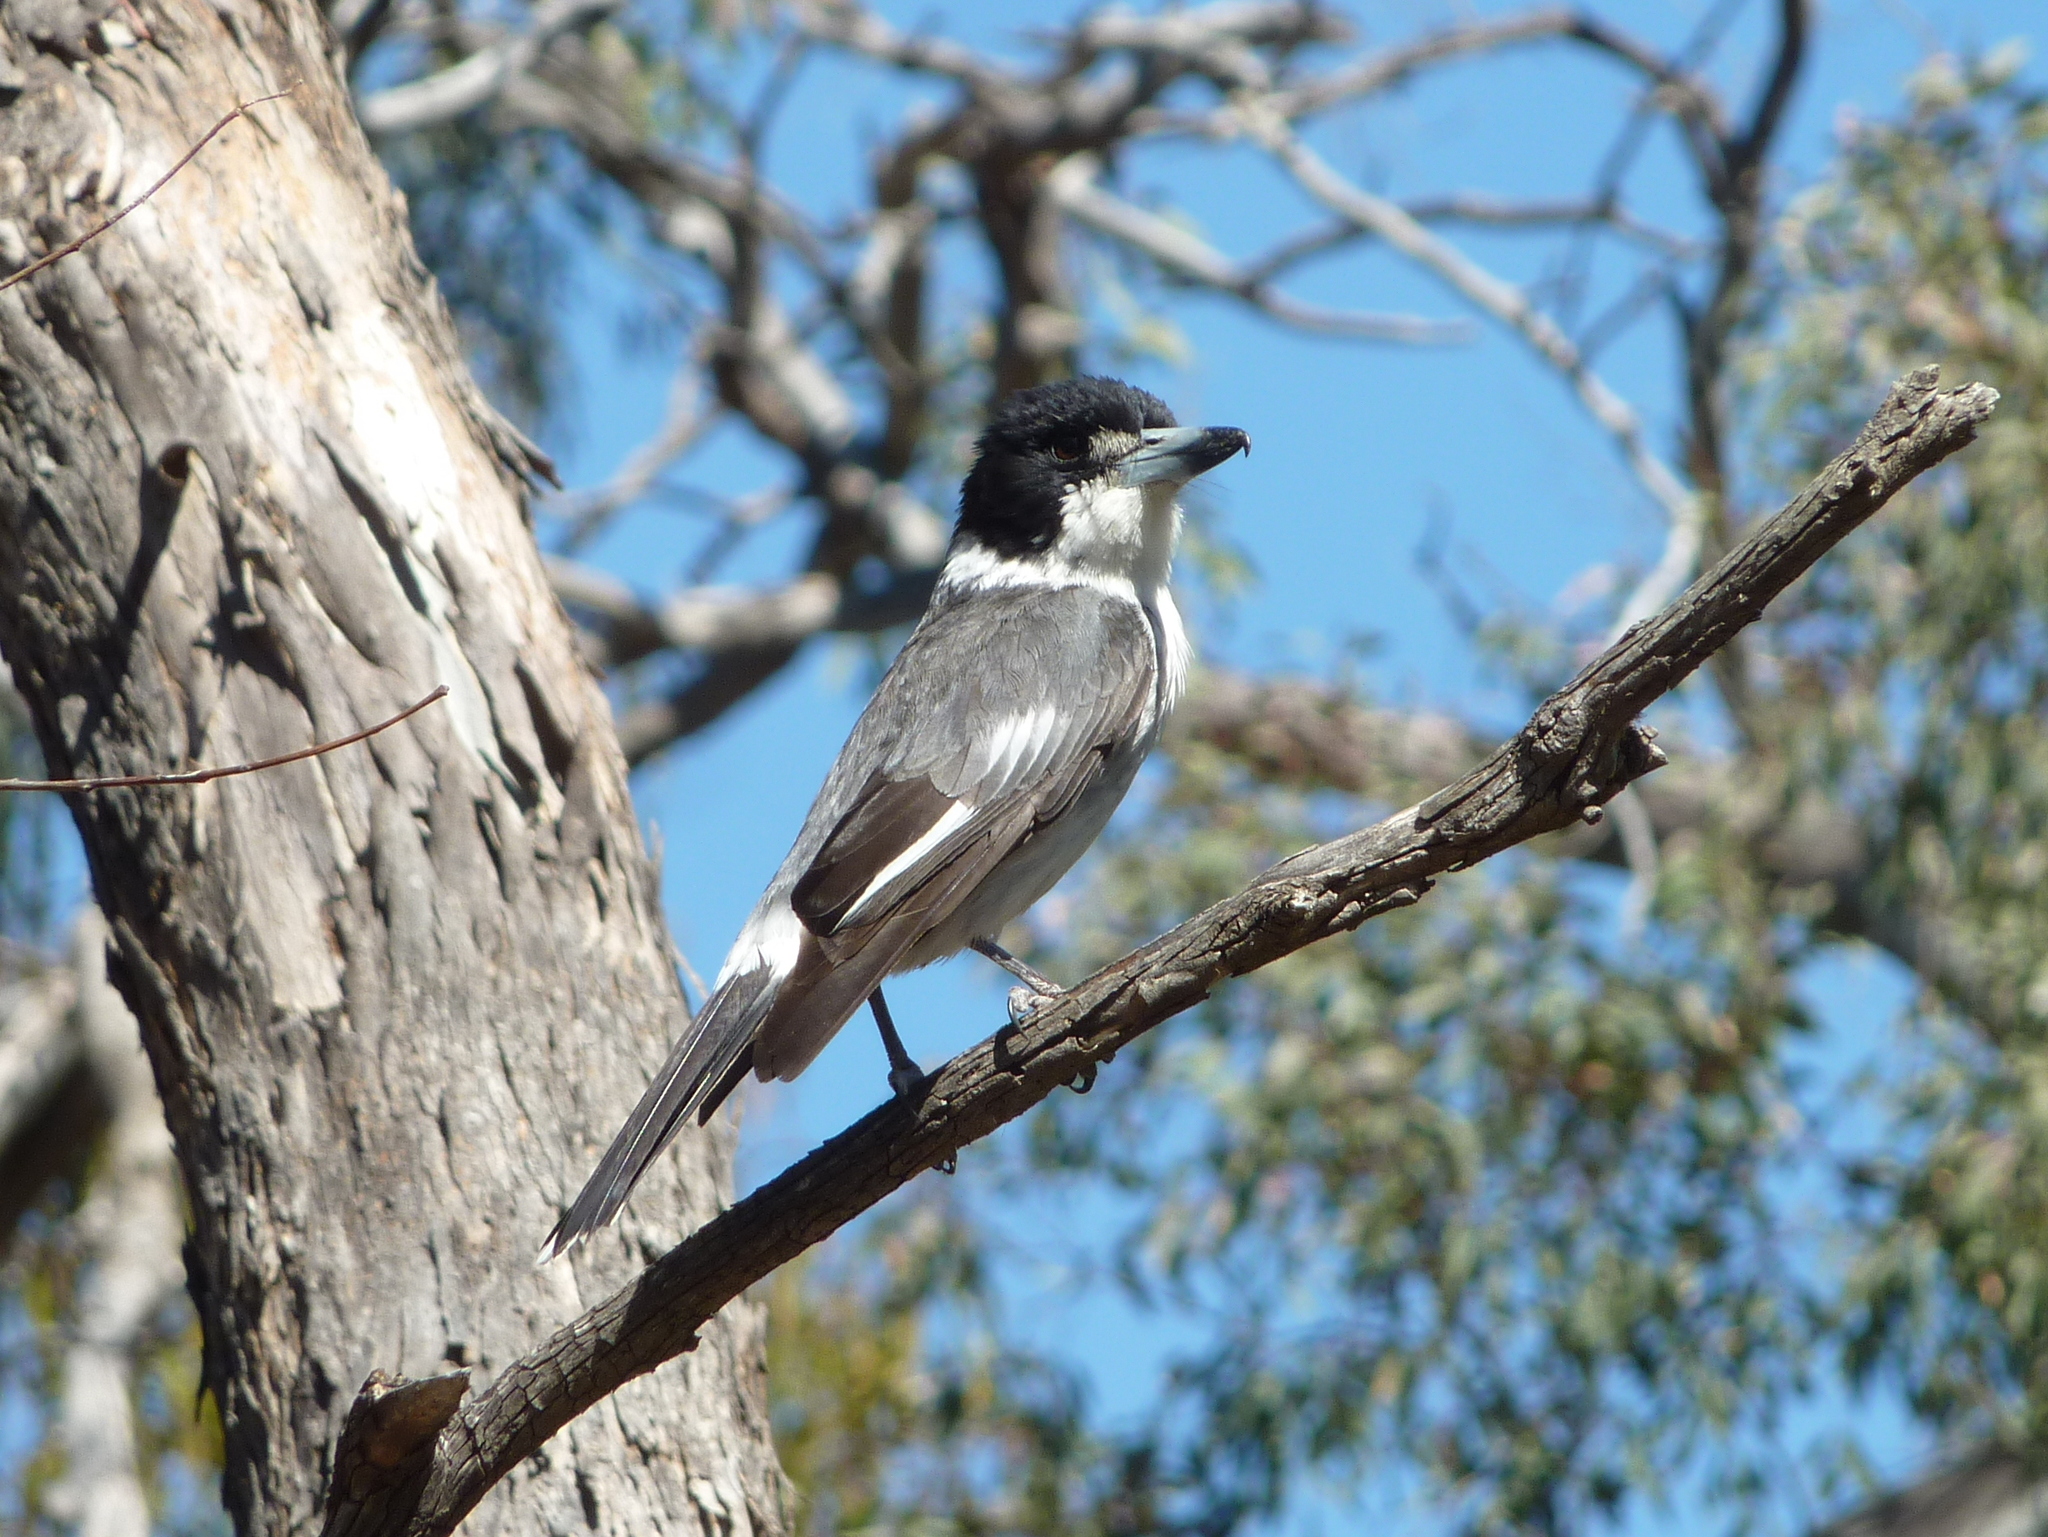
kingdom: Animalia
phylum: Chordata
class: Aves
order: Passeriformes
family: Cracticidae
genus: Cracticus
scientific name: Cracticus torquatus
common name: Grey butcherbird
